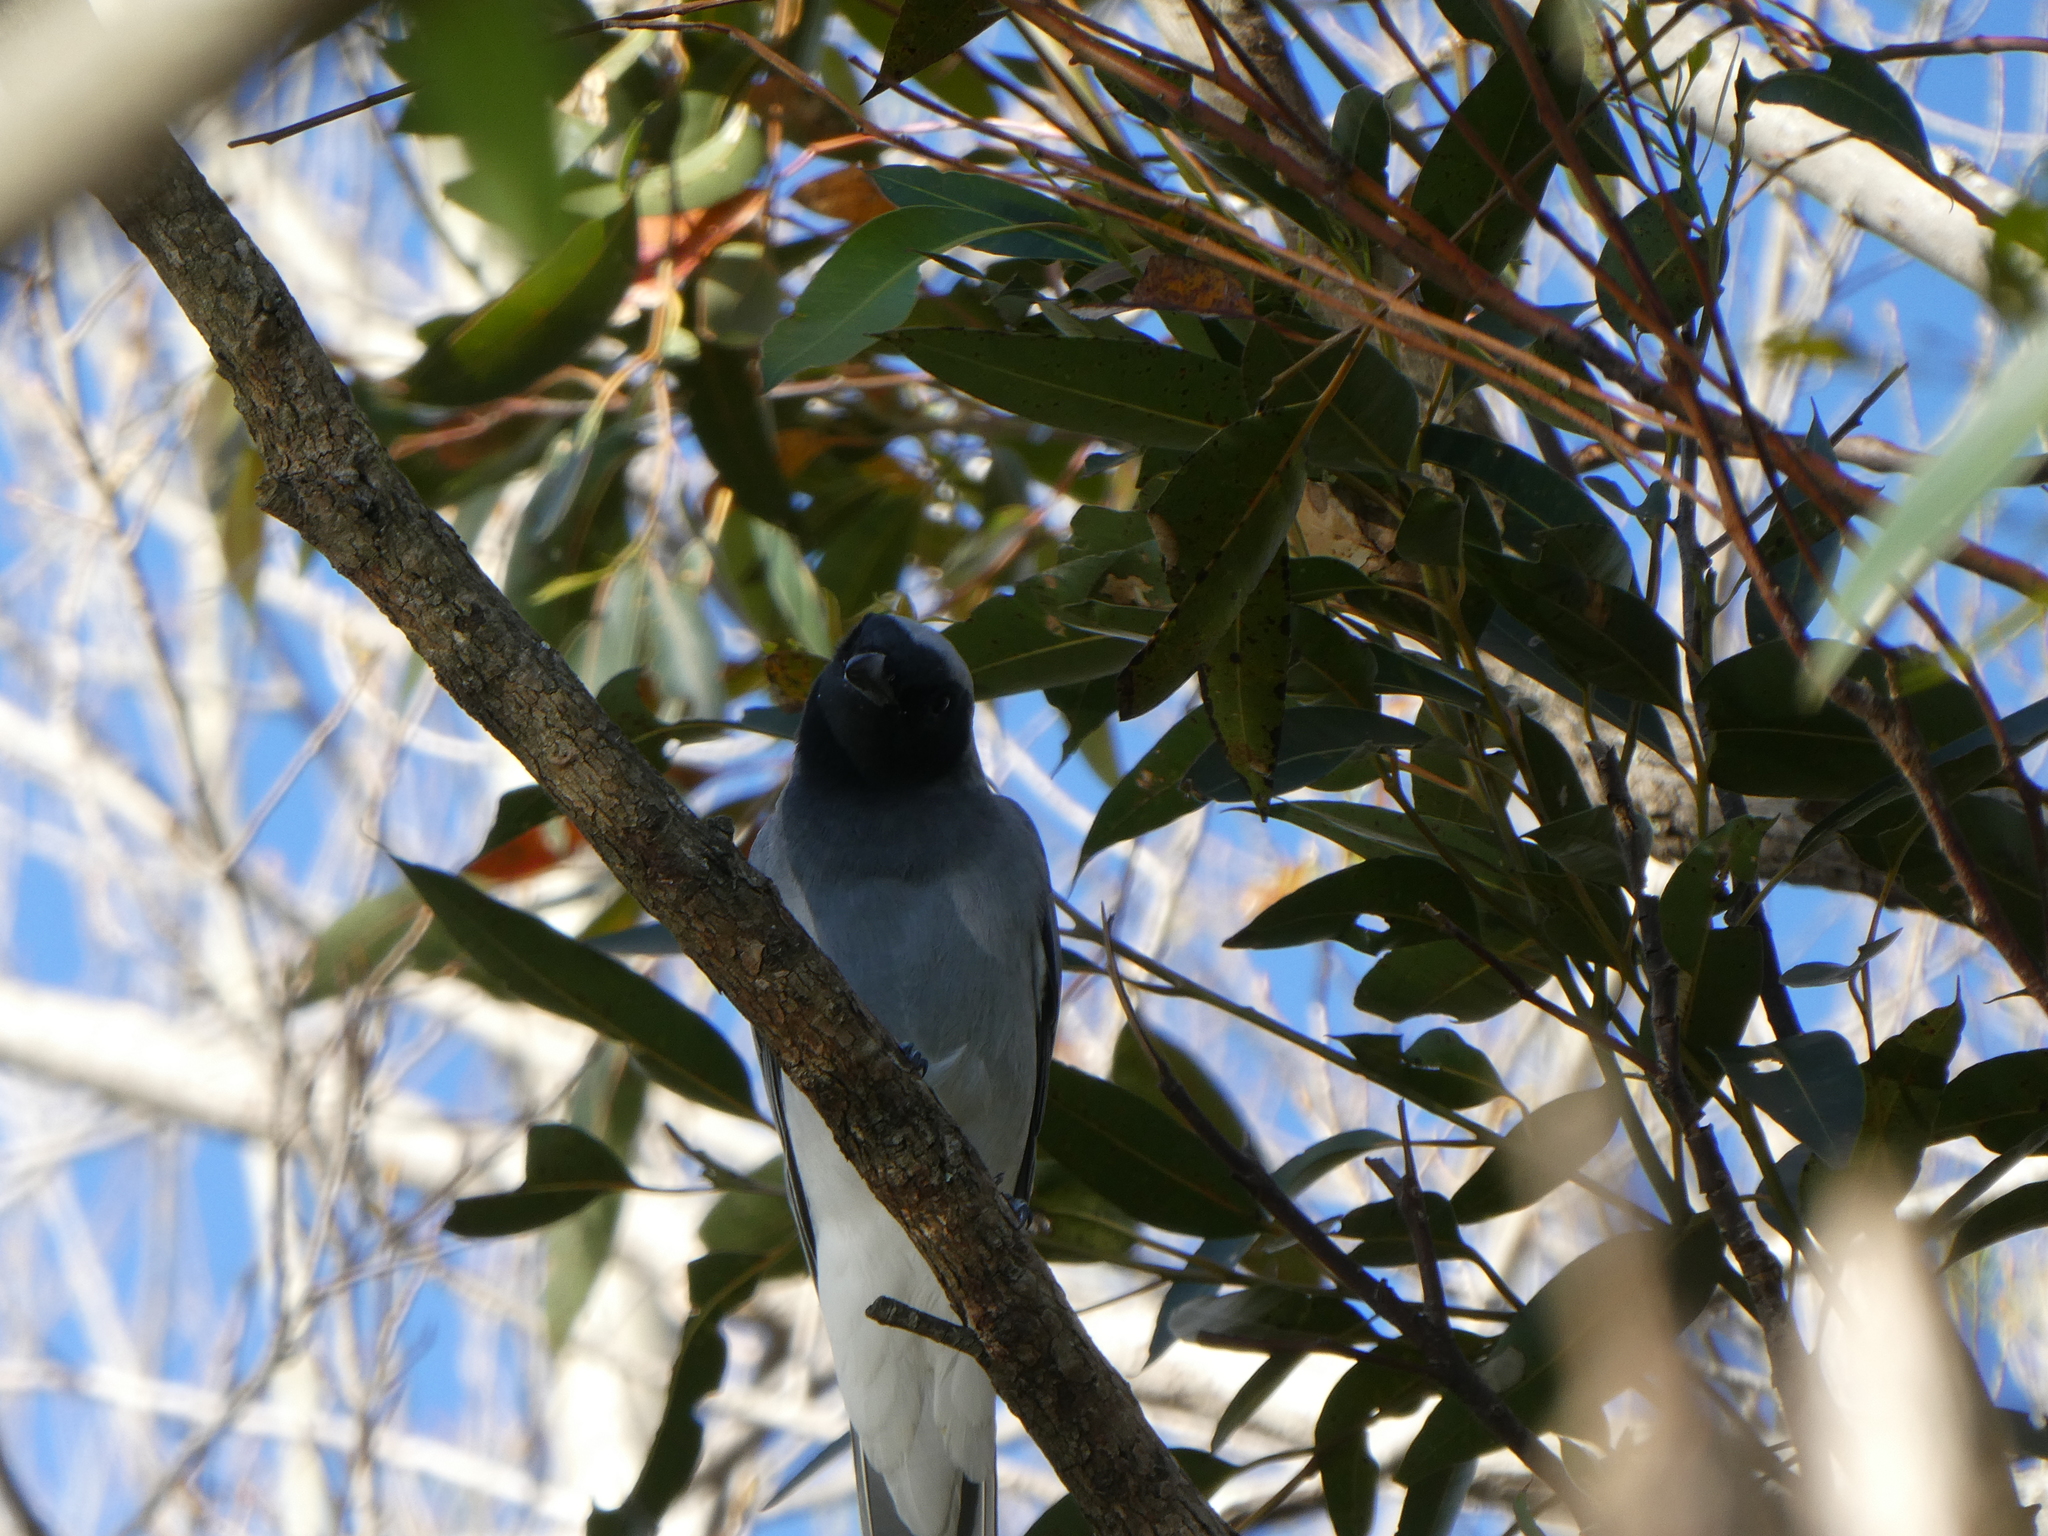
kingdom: Animalia
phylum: Chordata
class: Aves
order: Passeriformes
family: Campephagidae
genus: Coracina
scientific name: Coracina novaehollandiae
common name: Black-faced cuckooshrike
